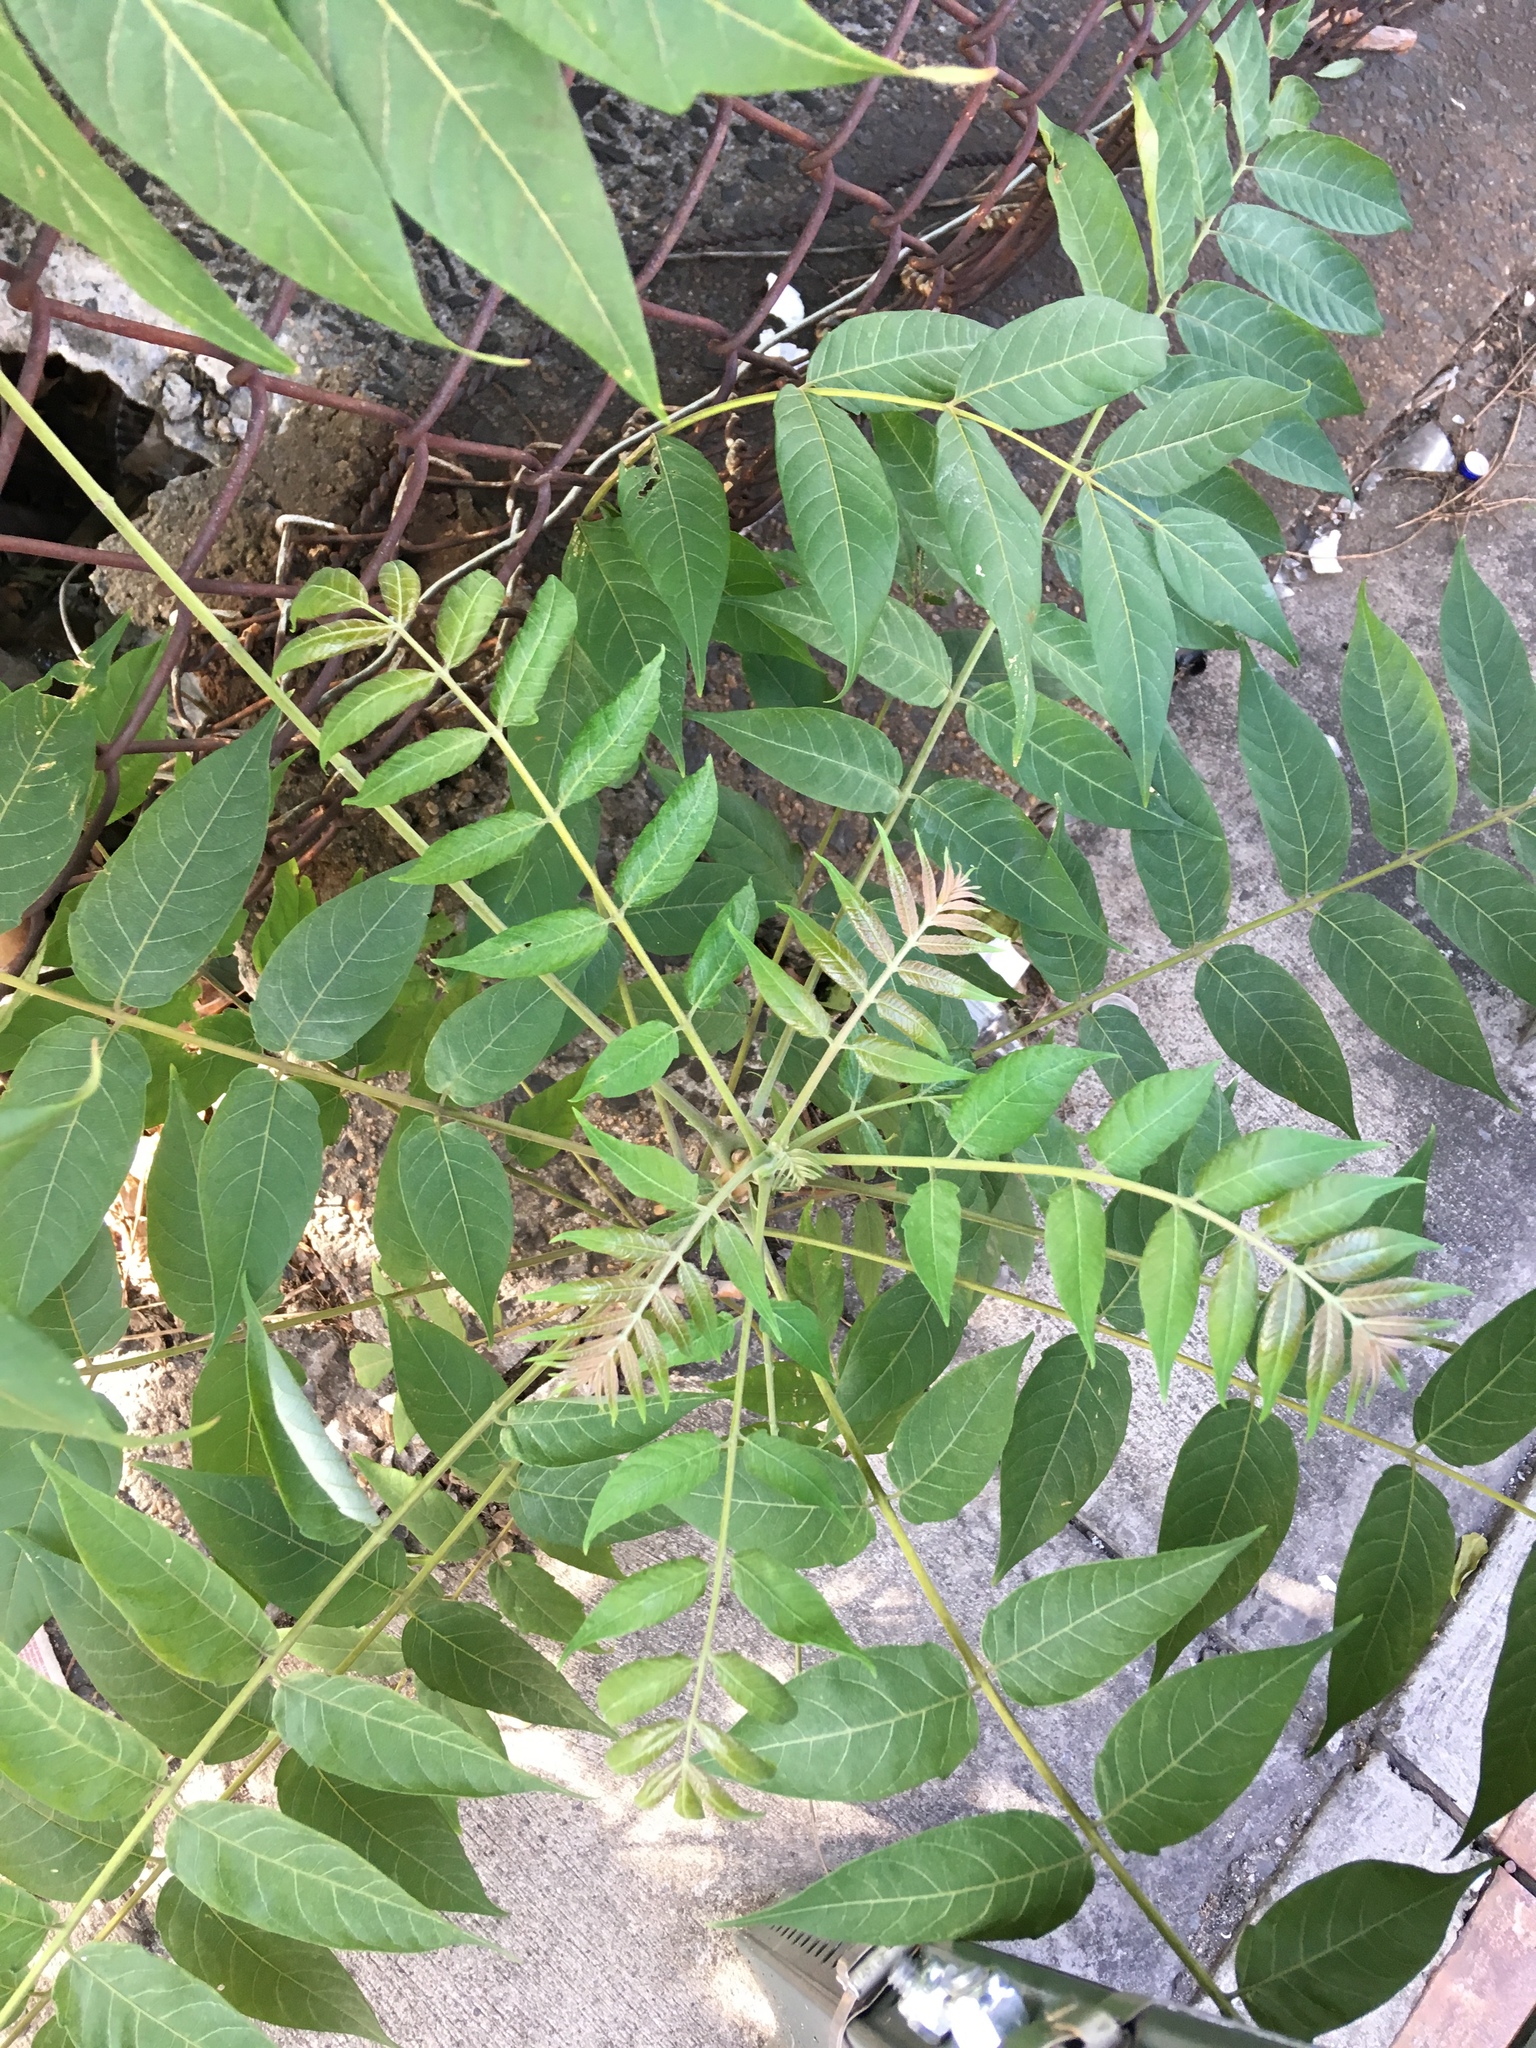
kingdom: Plantae
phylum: Tracheophyta
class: Magnoliopsida
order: Sapindales
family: Simaroubaceae
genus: Ailanthus
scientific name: Ailanthus altissima
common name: Tree-of-heaven
